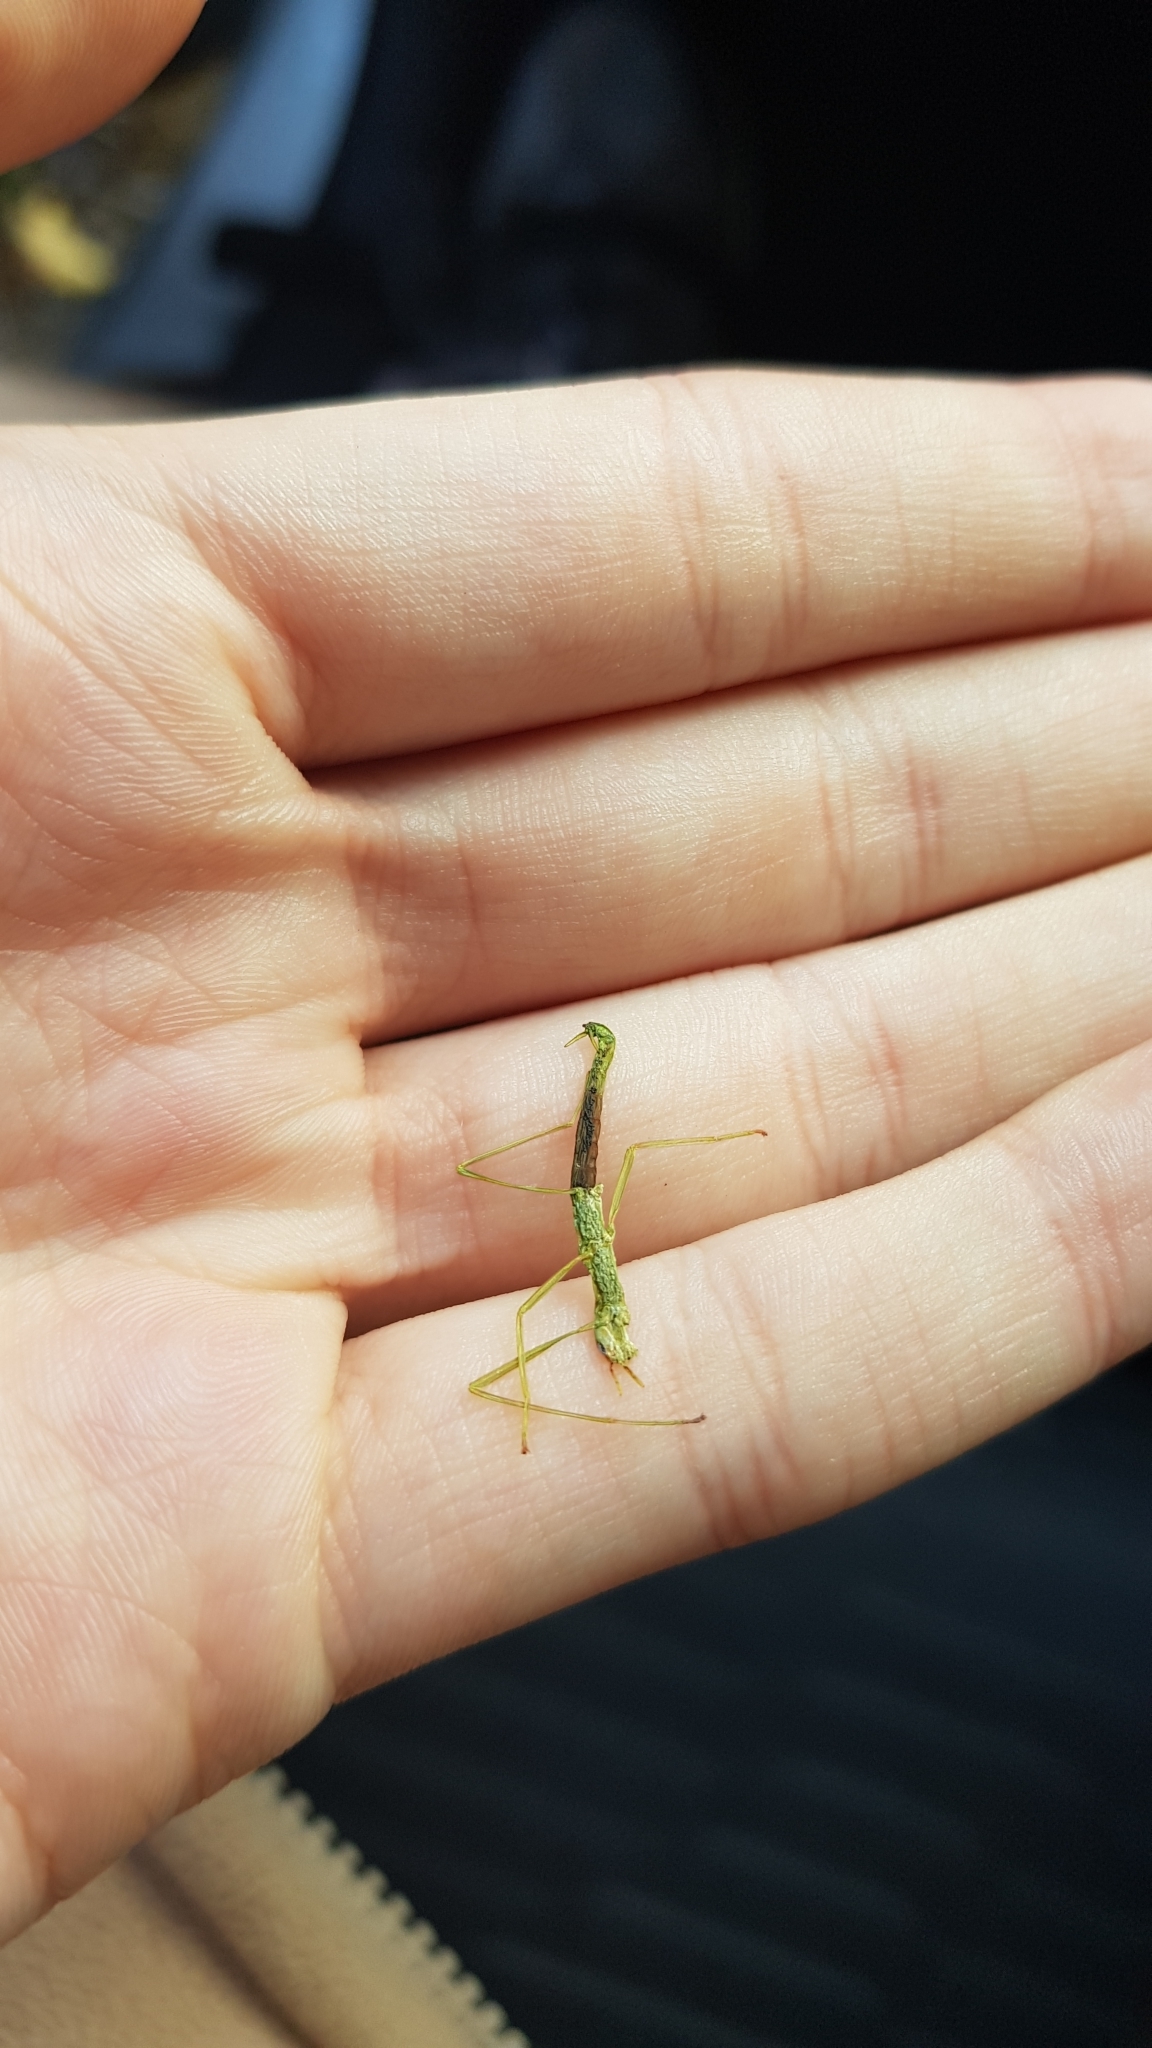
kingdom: Animalia
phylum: Arthropoda
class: Insecta
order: Phasmida
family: Phasmatidae
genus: Ctenomorpha
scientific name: Ctenomorpha marginipennis
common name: Margined-winged stick-insect
